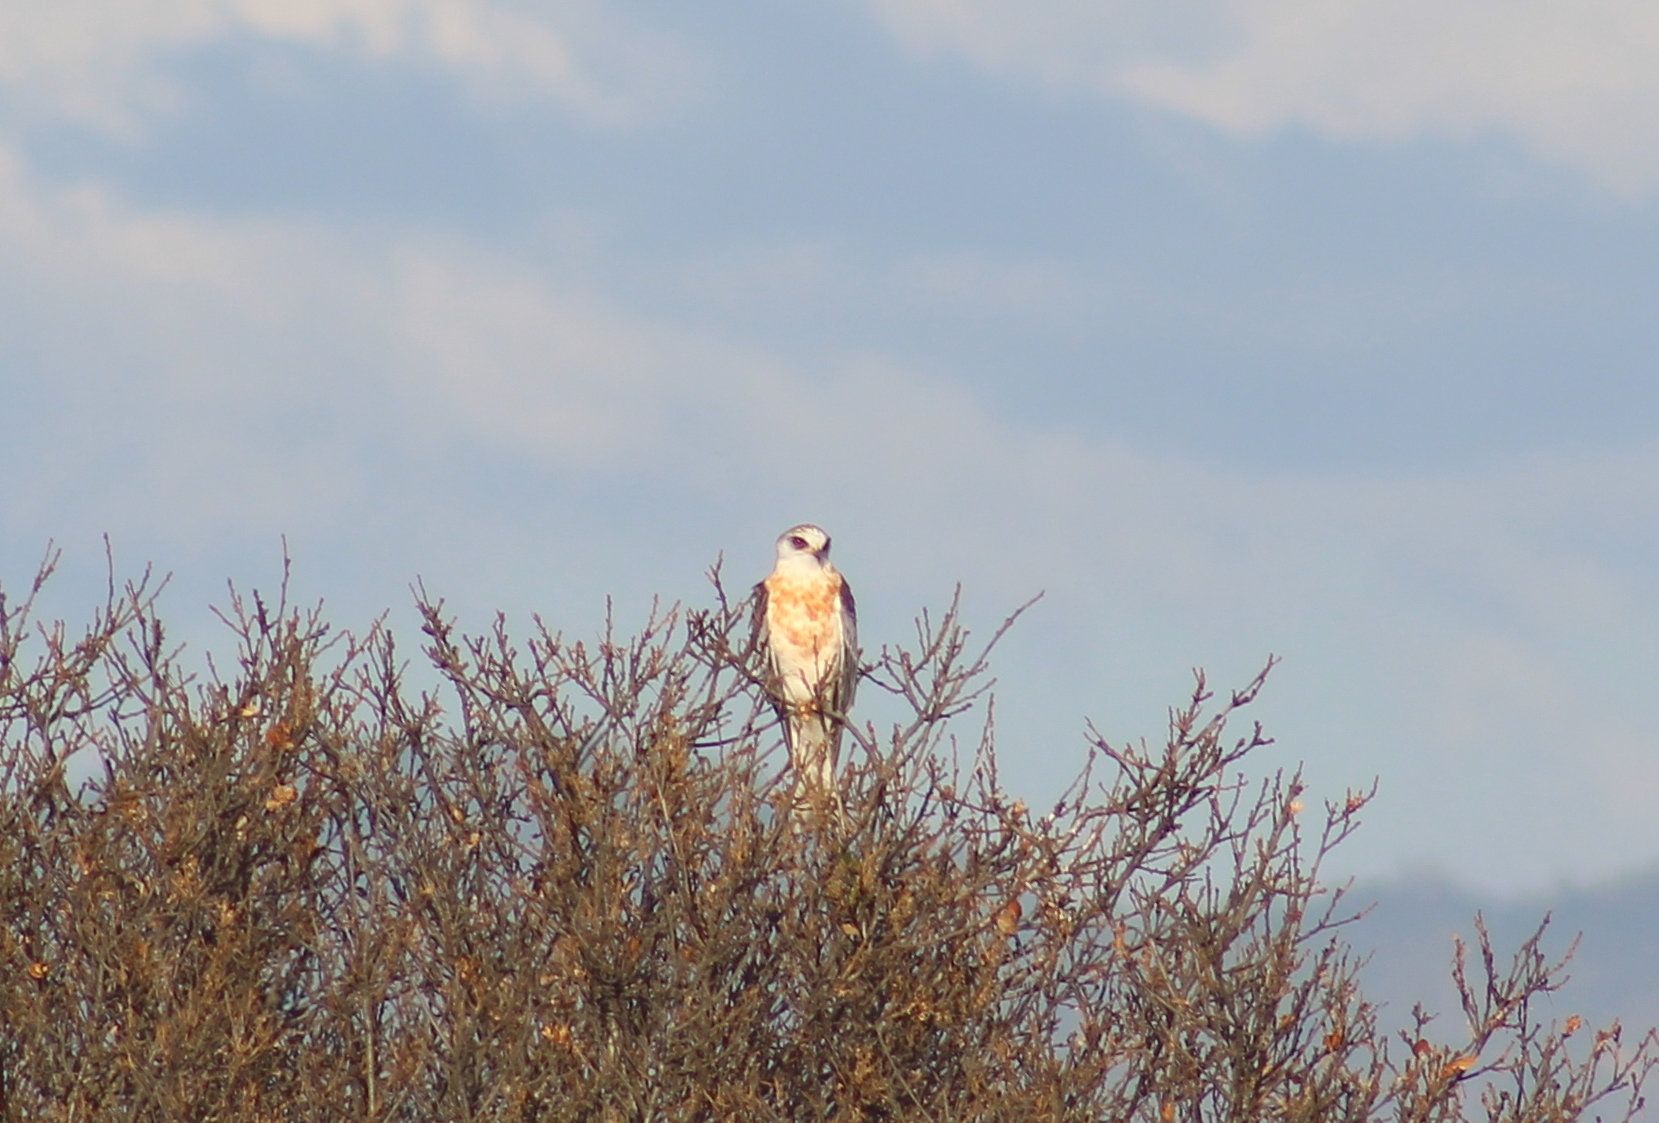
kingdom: Animalia
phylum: Chordata
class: Aves
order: Accipitriformes
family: Accipitridae
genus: Elanus
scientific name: Elanus leucurus
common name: White-tailed kite
